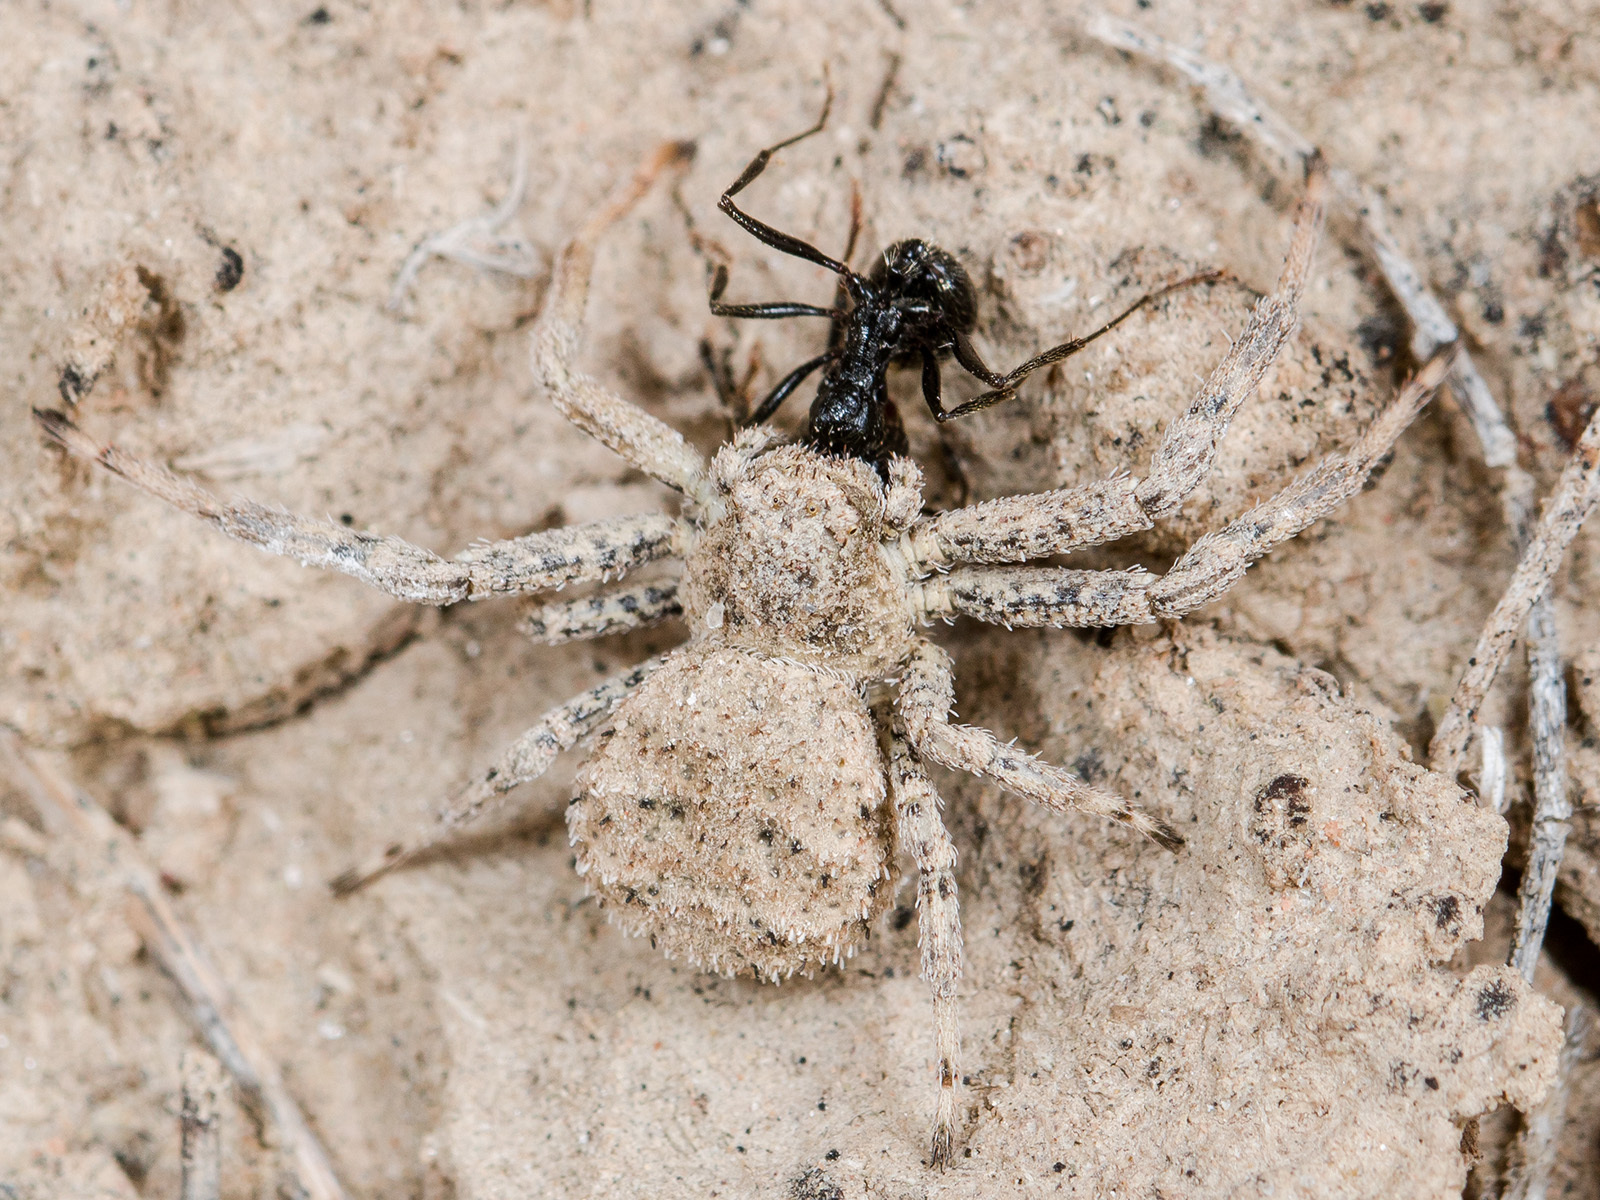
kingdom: Animalia
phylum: Arthropoda
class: Arachnida
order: Araneae
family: Thomisidae
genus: Ozyptila
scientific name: Ozyptila tuberosa
